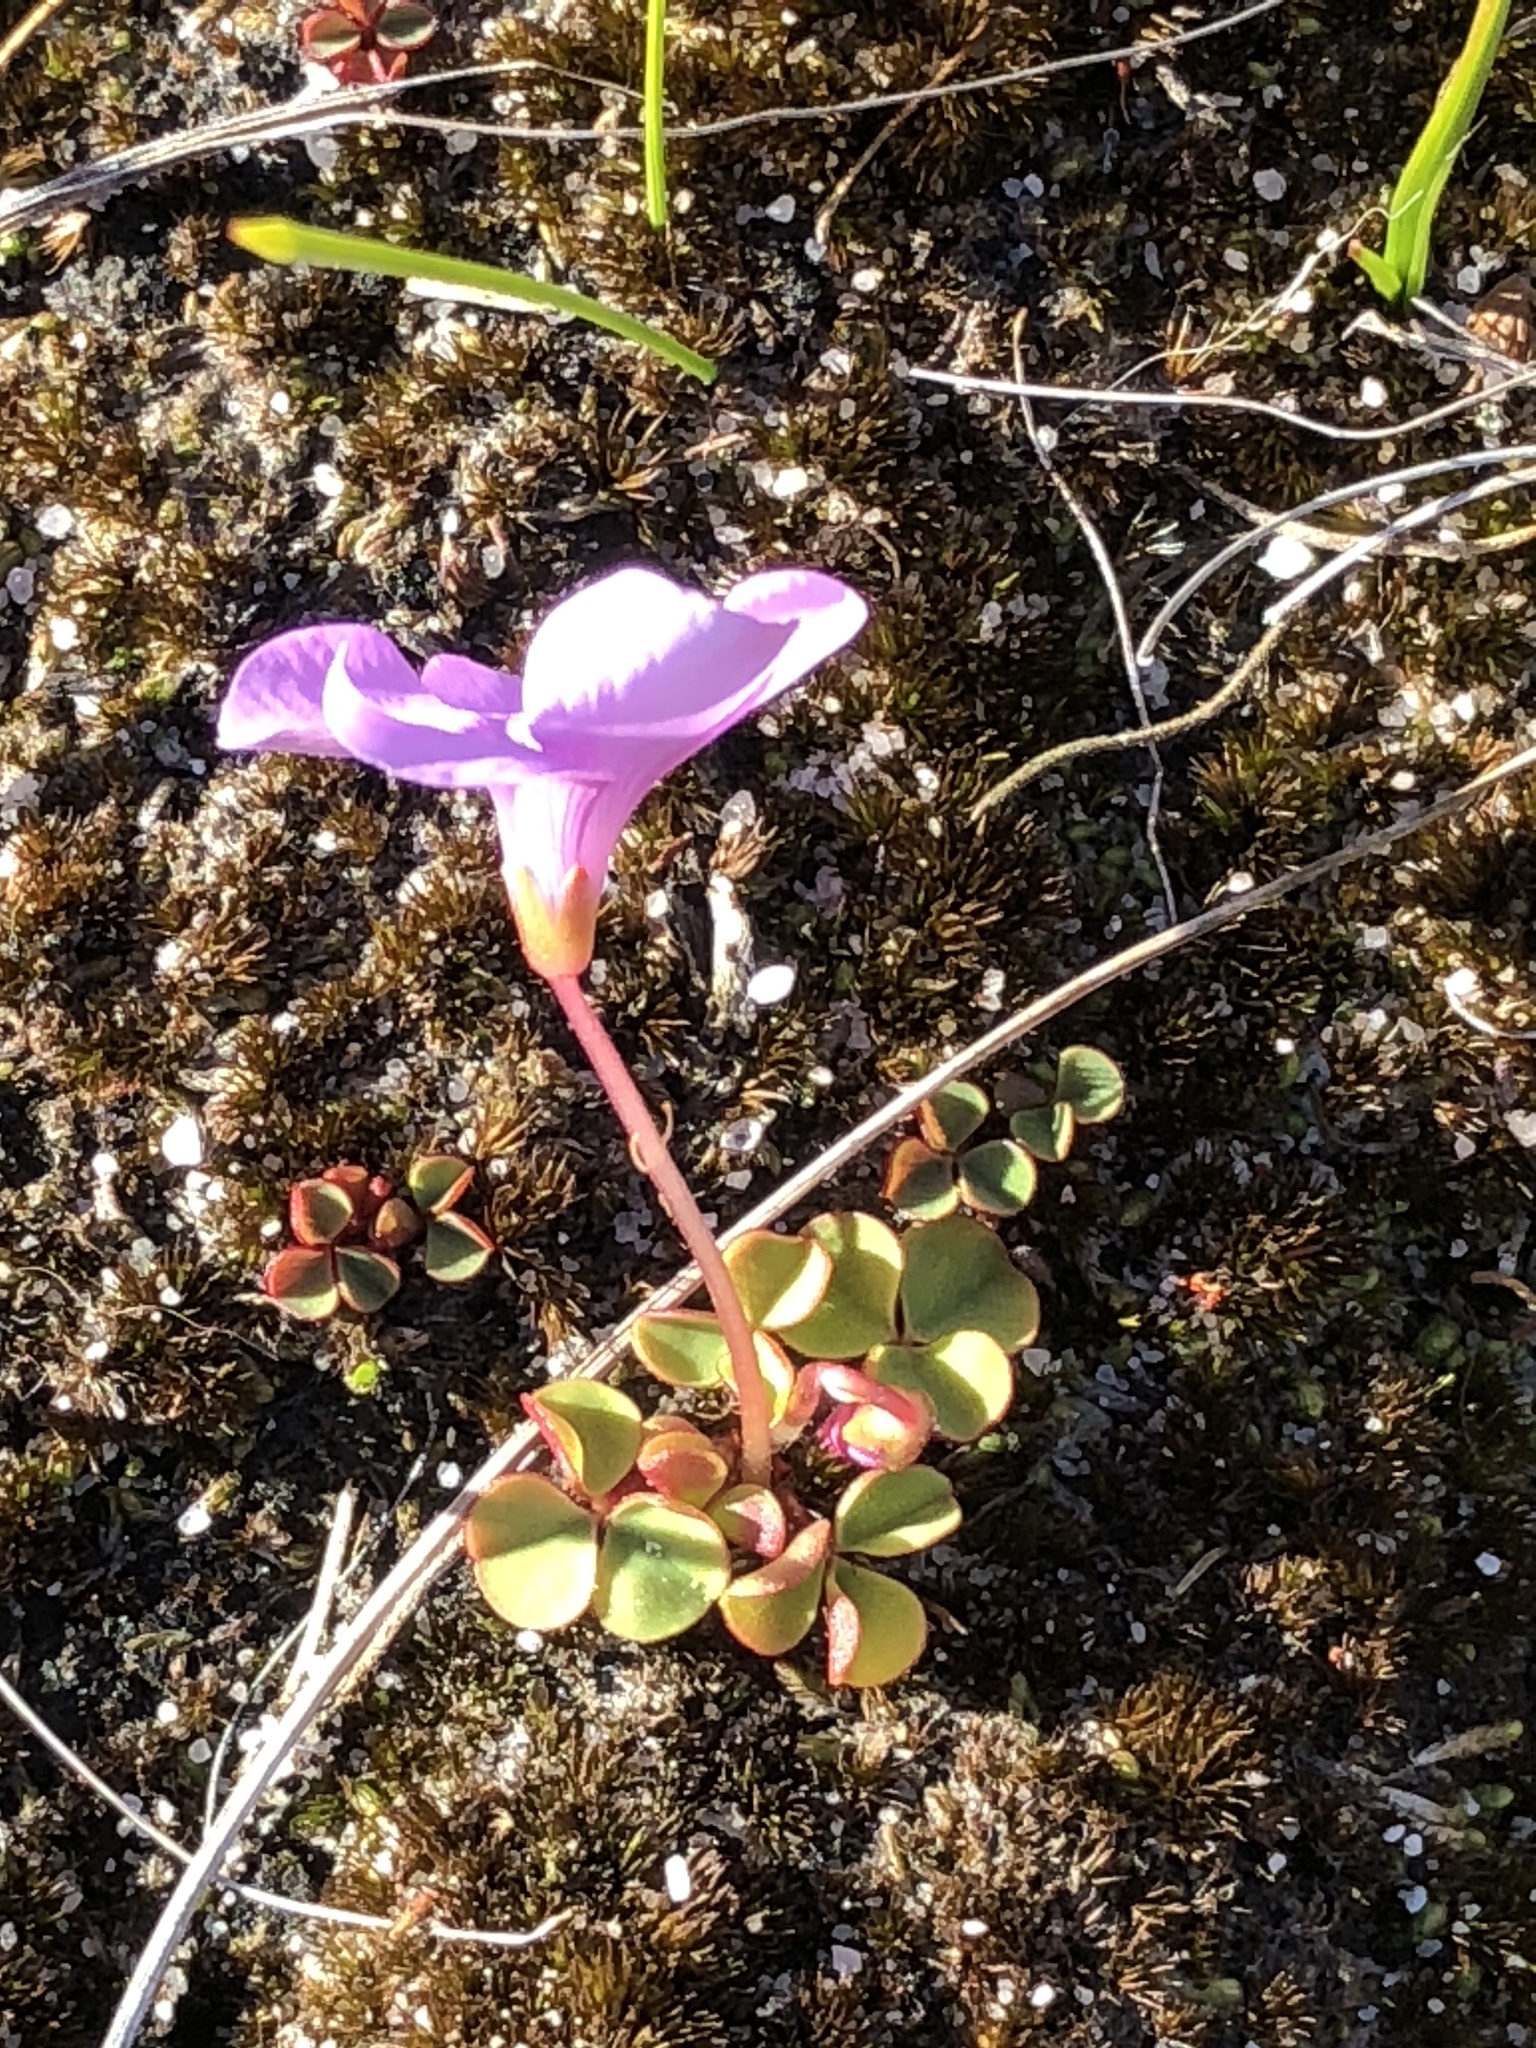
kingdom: Plantae
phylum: Tracheophyta
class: Magnoliopsida
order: Oxalidales
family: Oxalidaceae
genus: Oxalis
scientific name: Oxalis commutata
